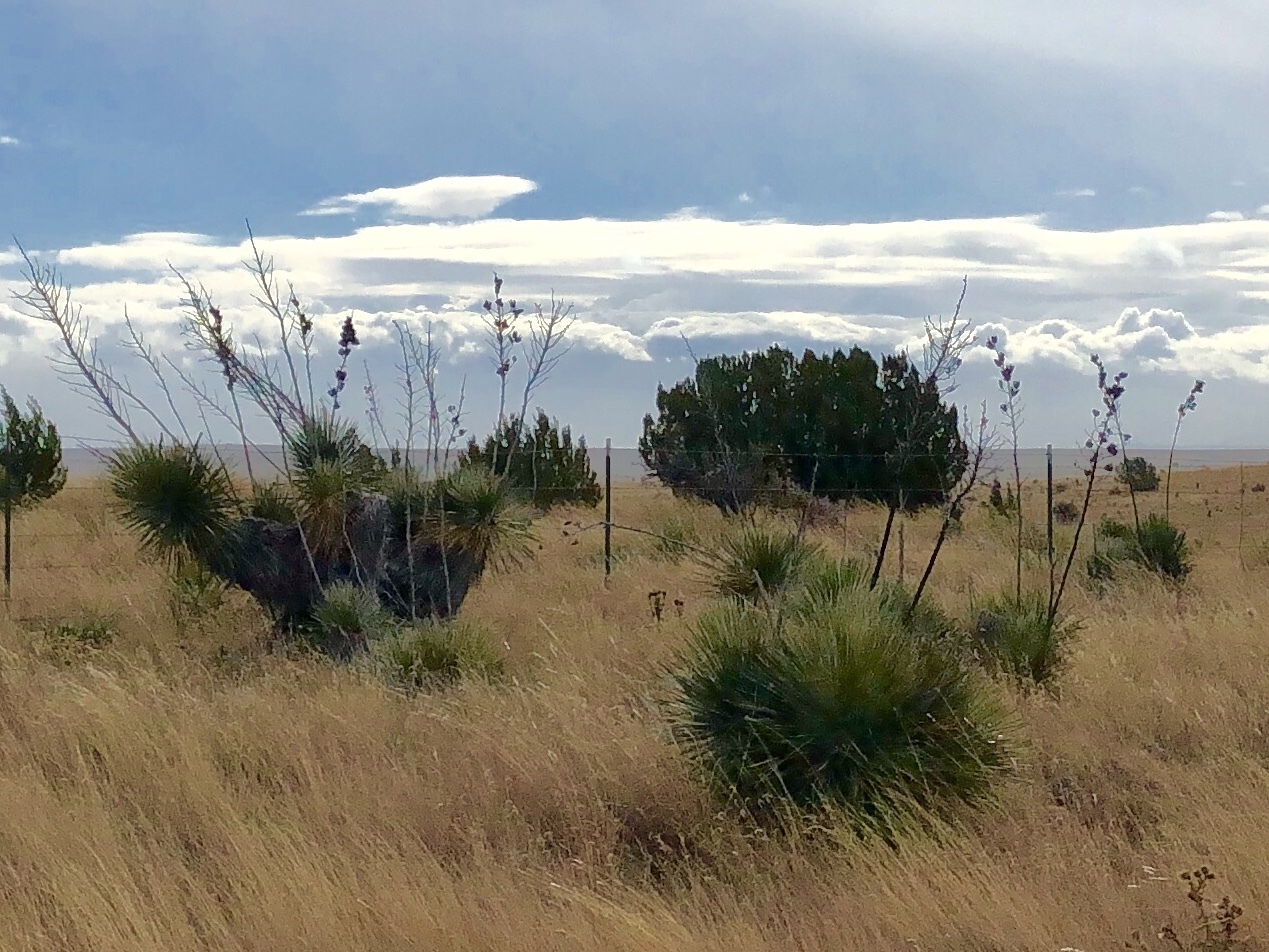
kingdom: Plantae
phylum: Tracheophyta
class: Liliopsida
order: Asparagales
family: Asparagaceae
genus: Yucca
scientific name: Yucca elata
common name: Palmella
